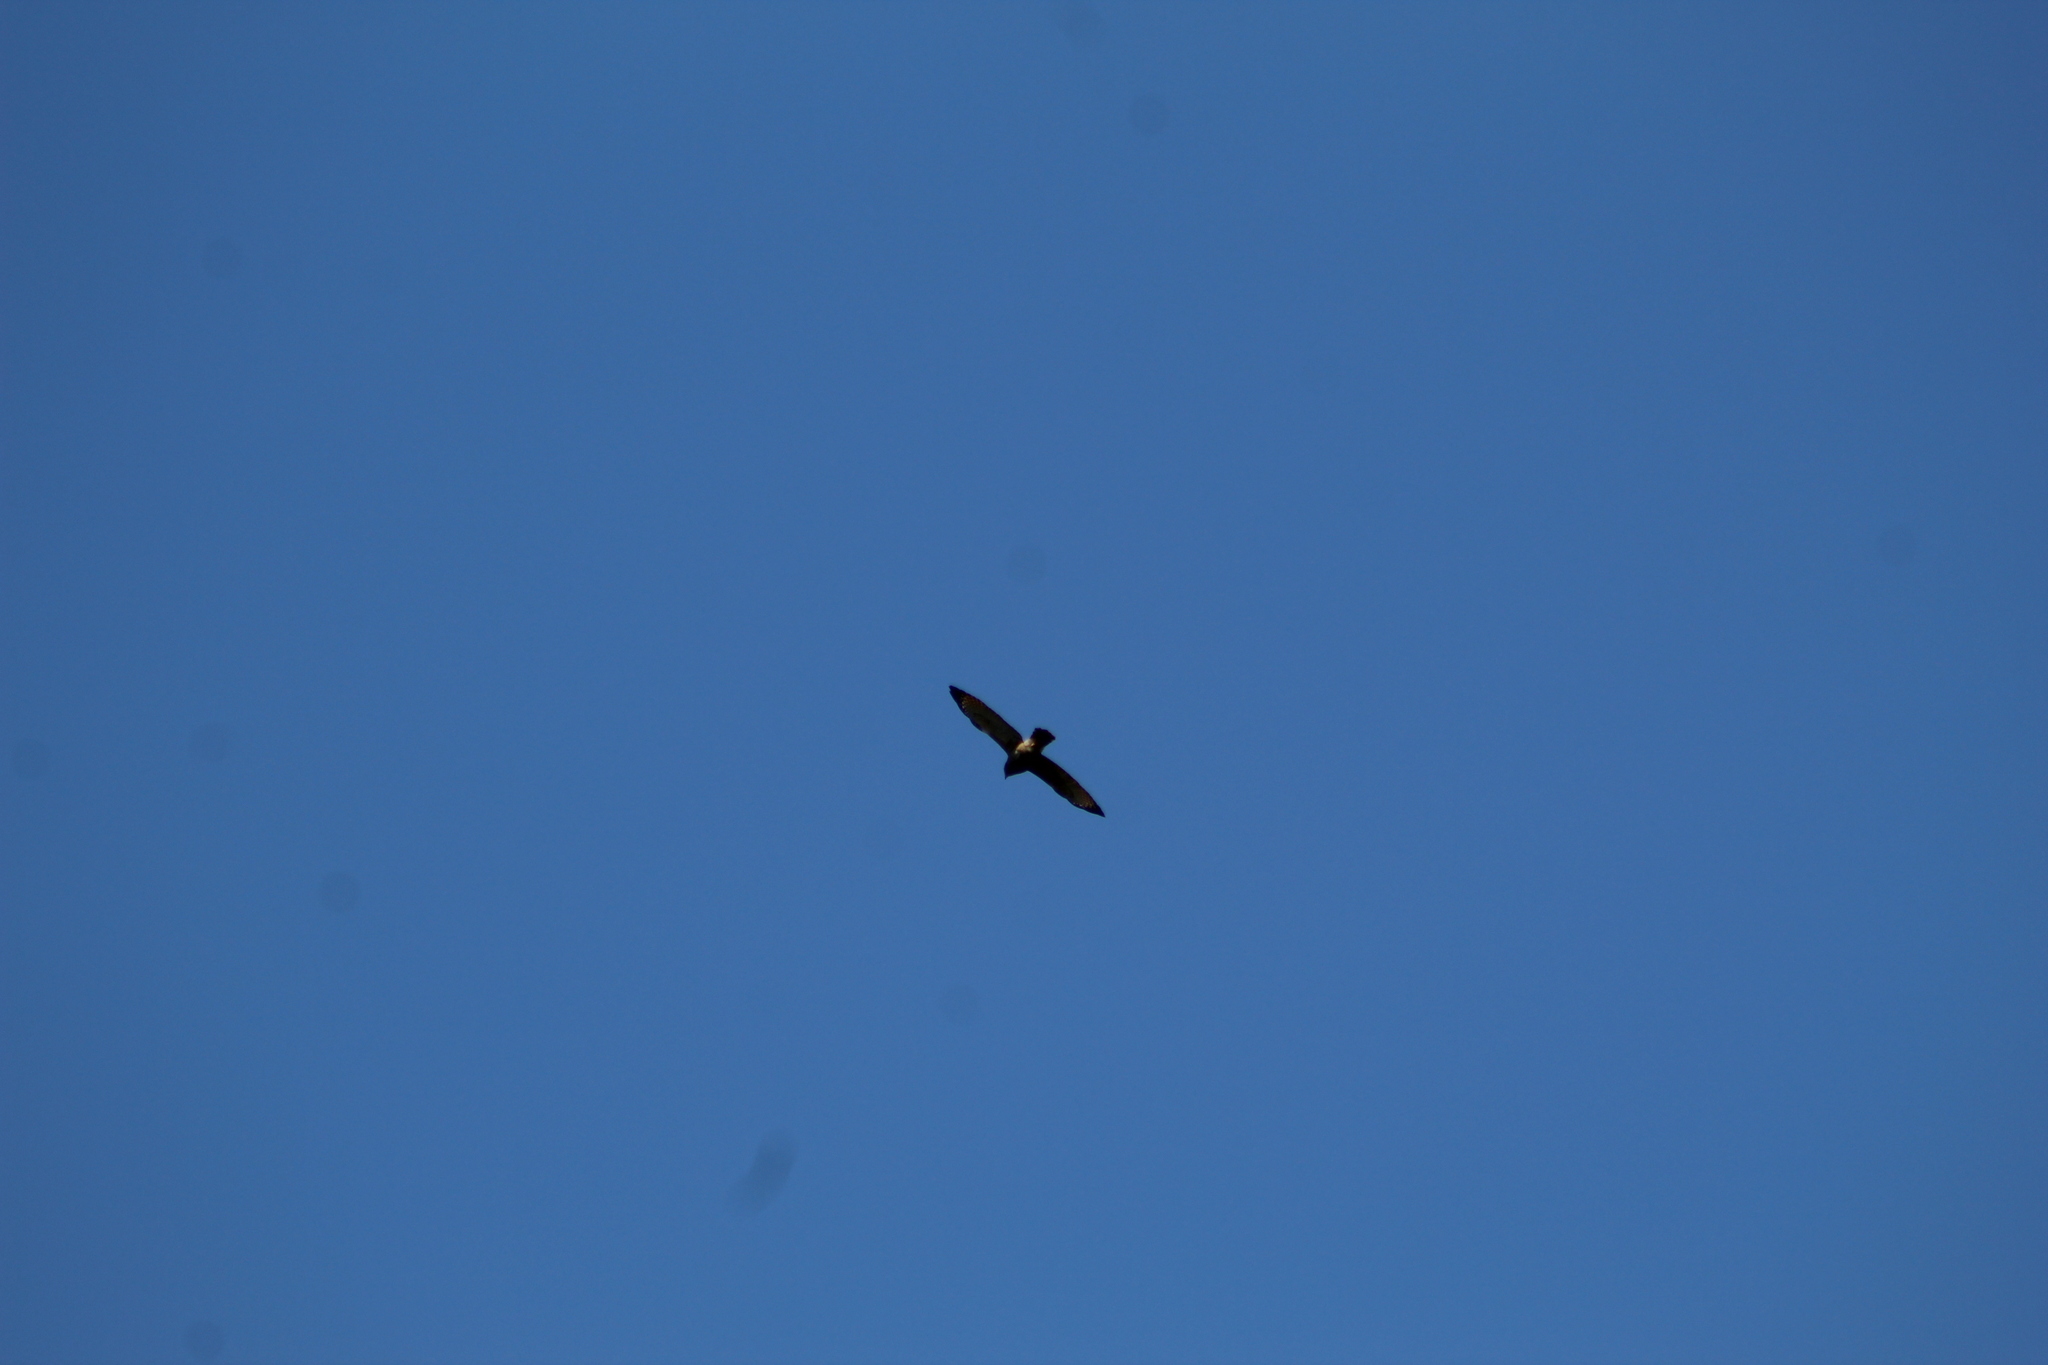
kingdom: Animalia
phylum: Chordata
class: Aves
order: Accipitriformes
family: Accipitridae
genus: Buteo
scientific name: Buteo nitidus
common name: Grey-lined hawk
